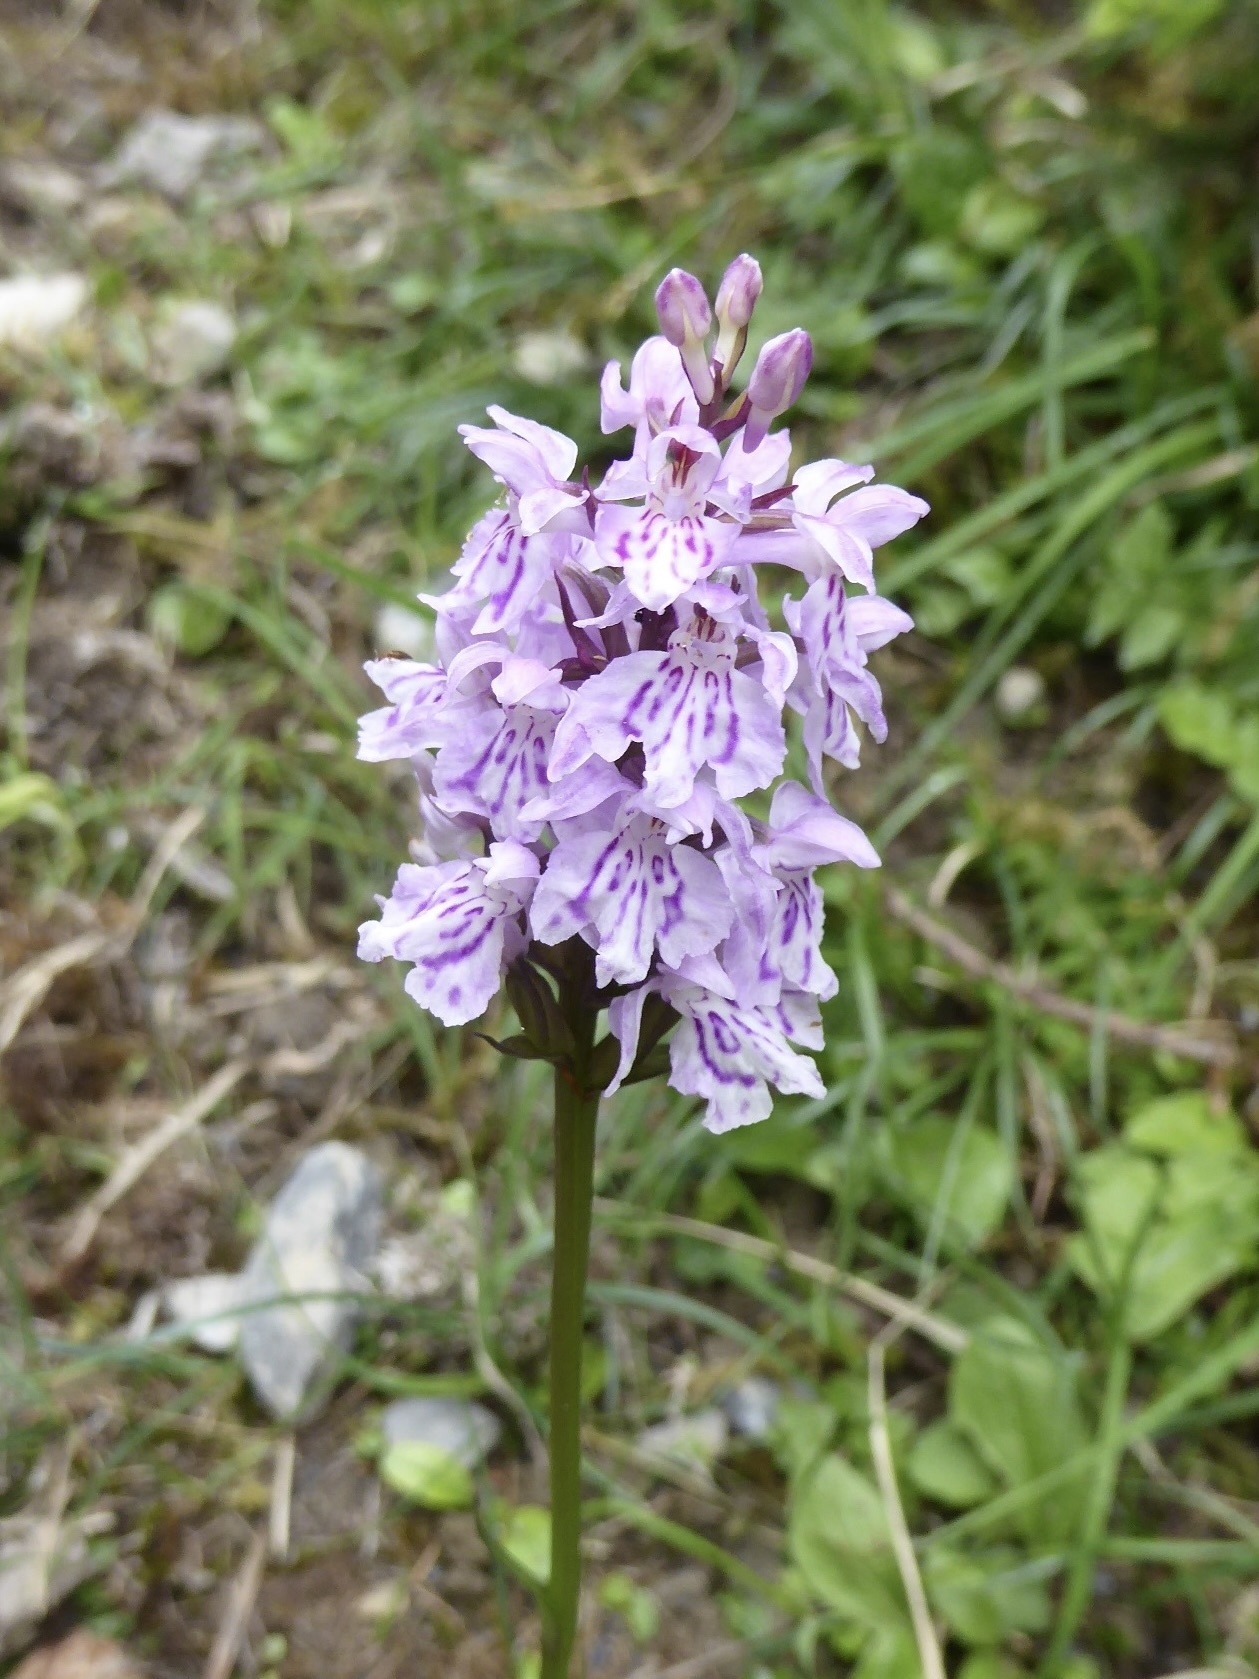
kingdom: Plantae
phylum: Tracheophyta
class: Liliopsida
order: Asparagales
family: Orchidaceae
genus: Dactylorhiza
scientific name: Dactylorhiza maculata
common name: Heath spotted-orchid
